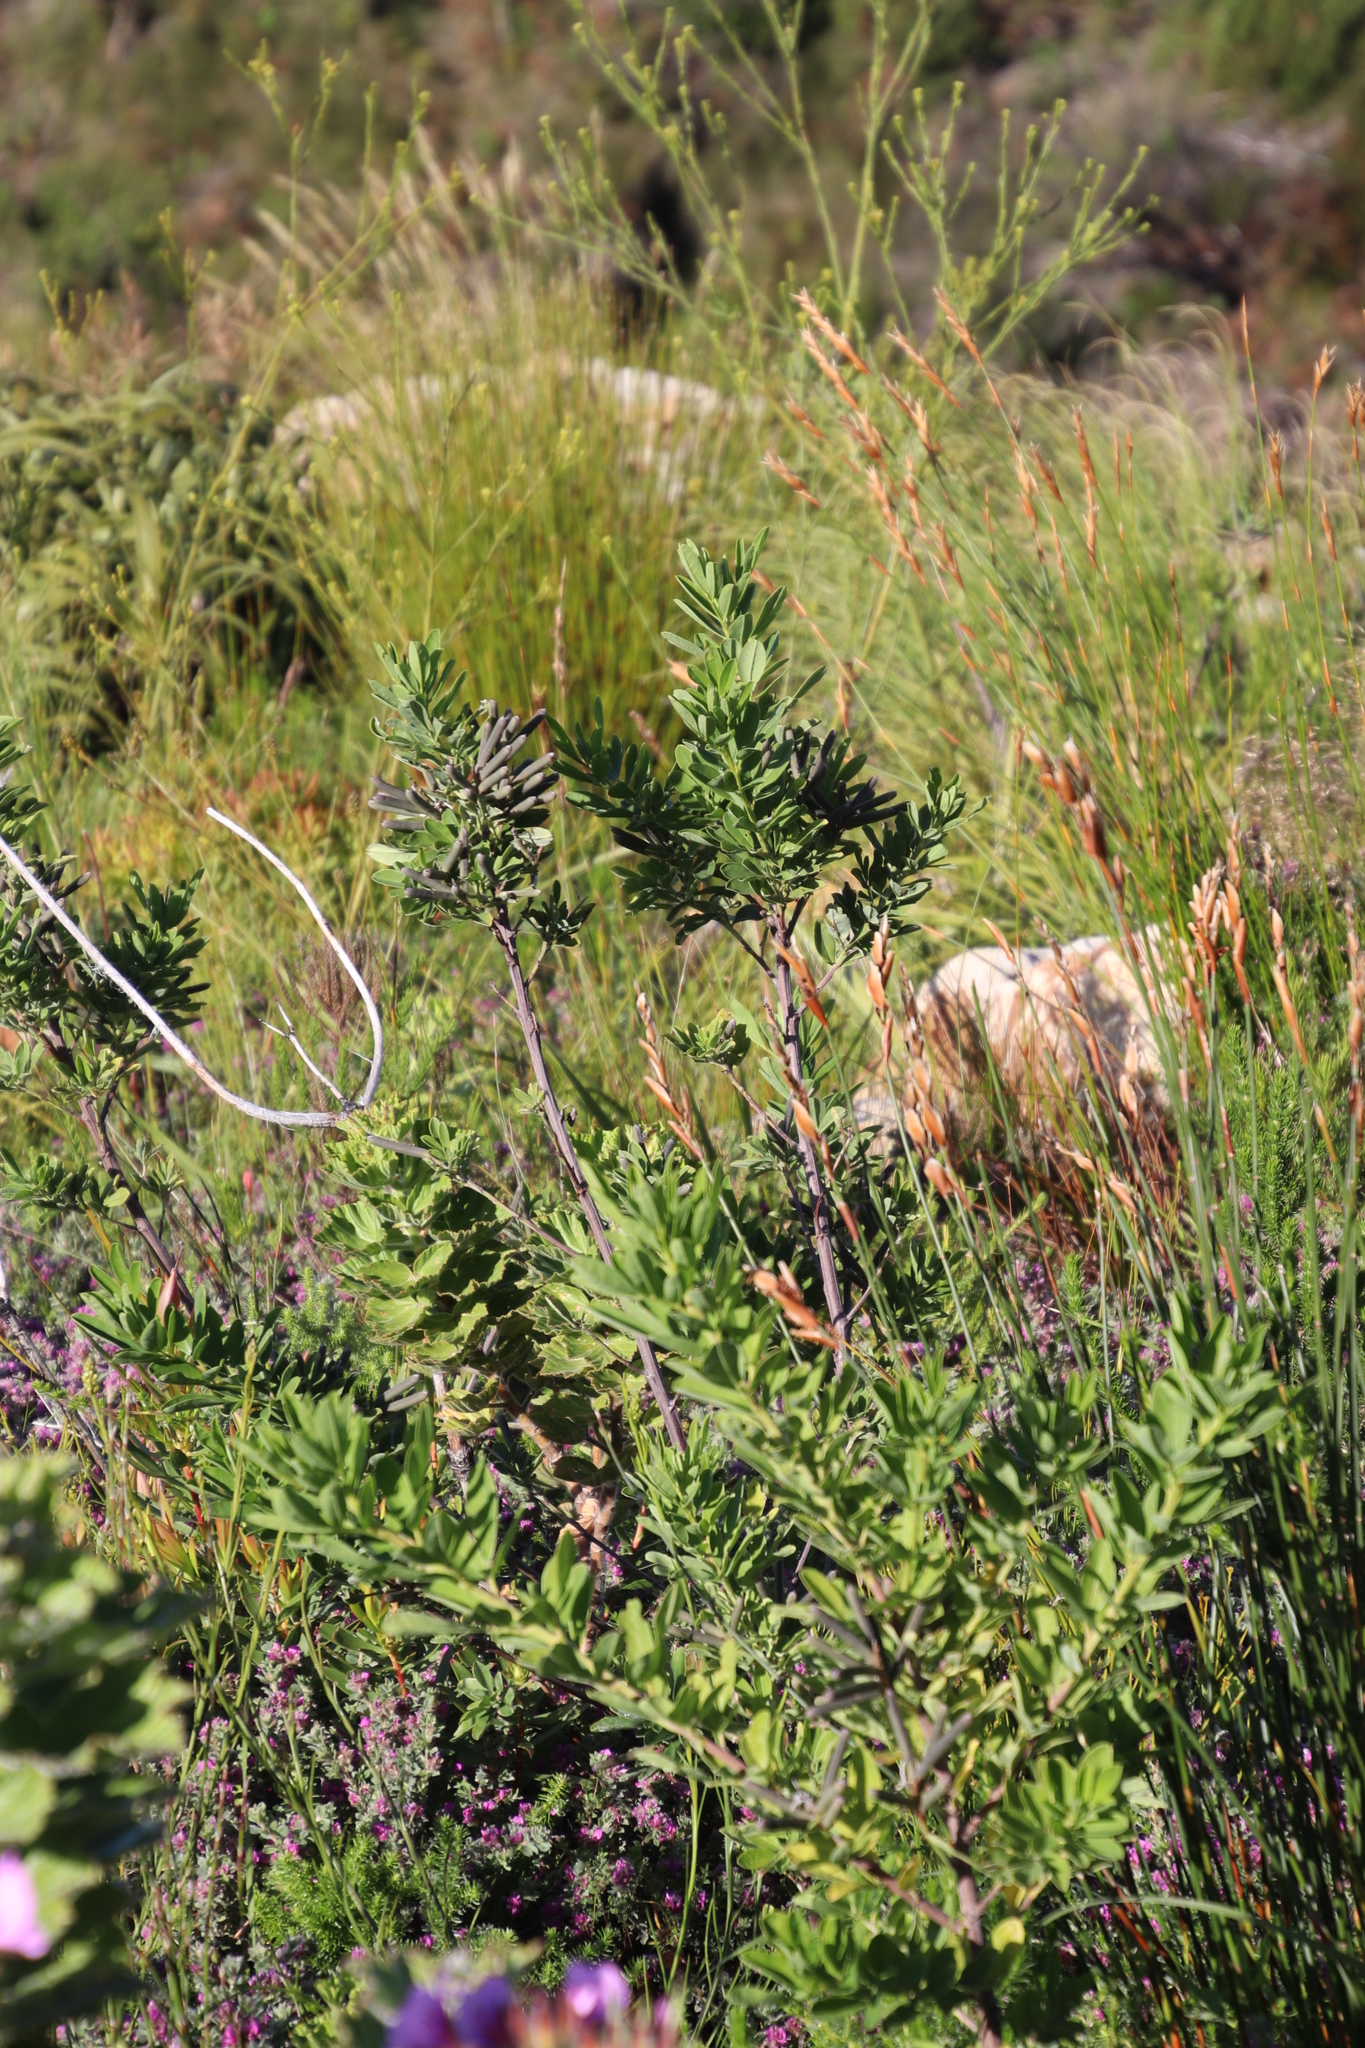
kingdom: Plantae
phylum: Tracheophyta
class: Magnoliopsida
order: Fabales
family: Fabaceae
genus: Indigofera
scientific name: Indigofera cytisoides
